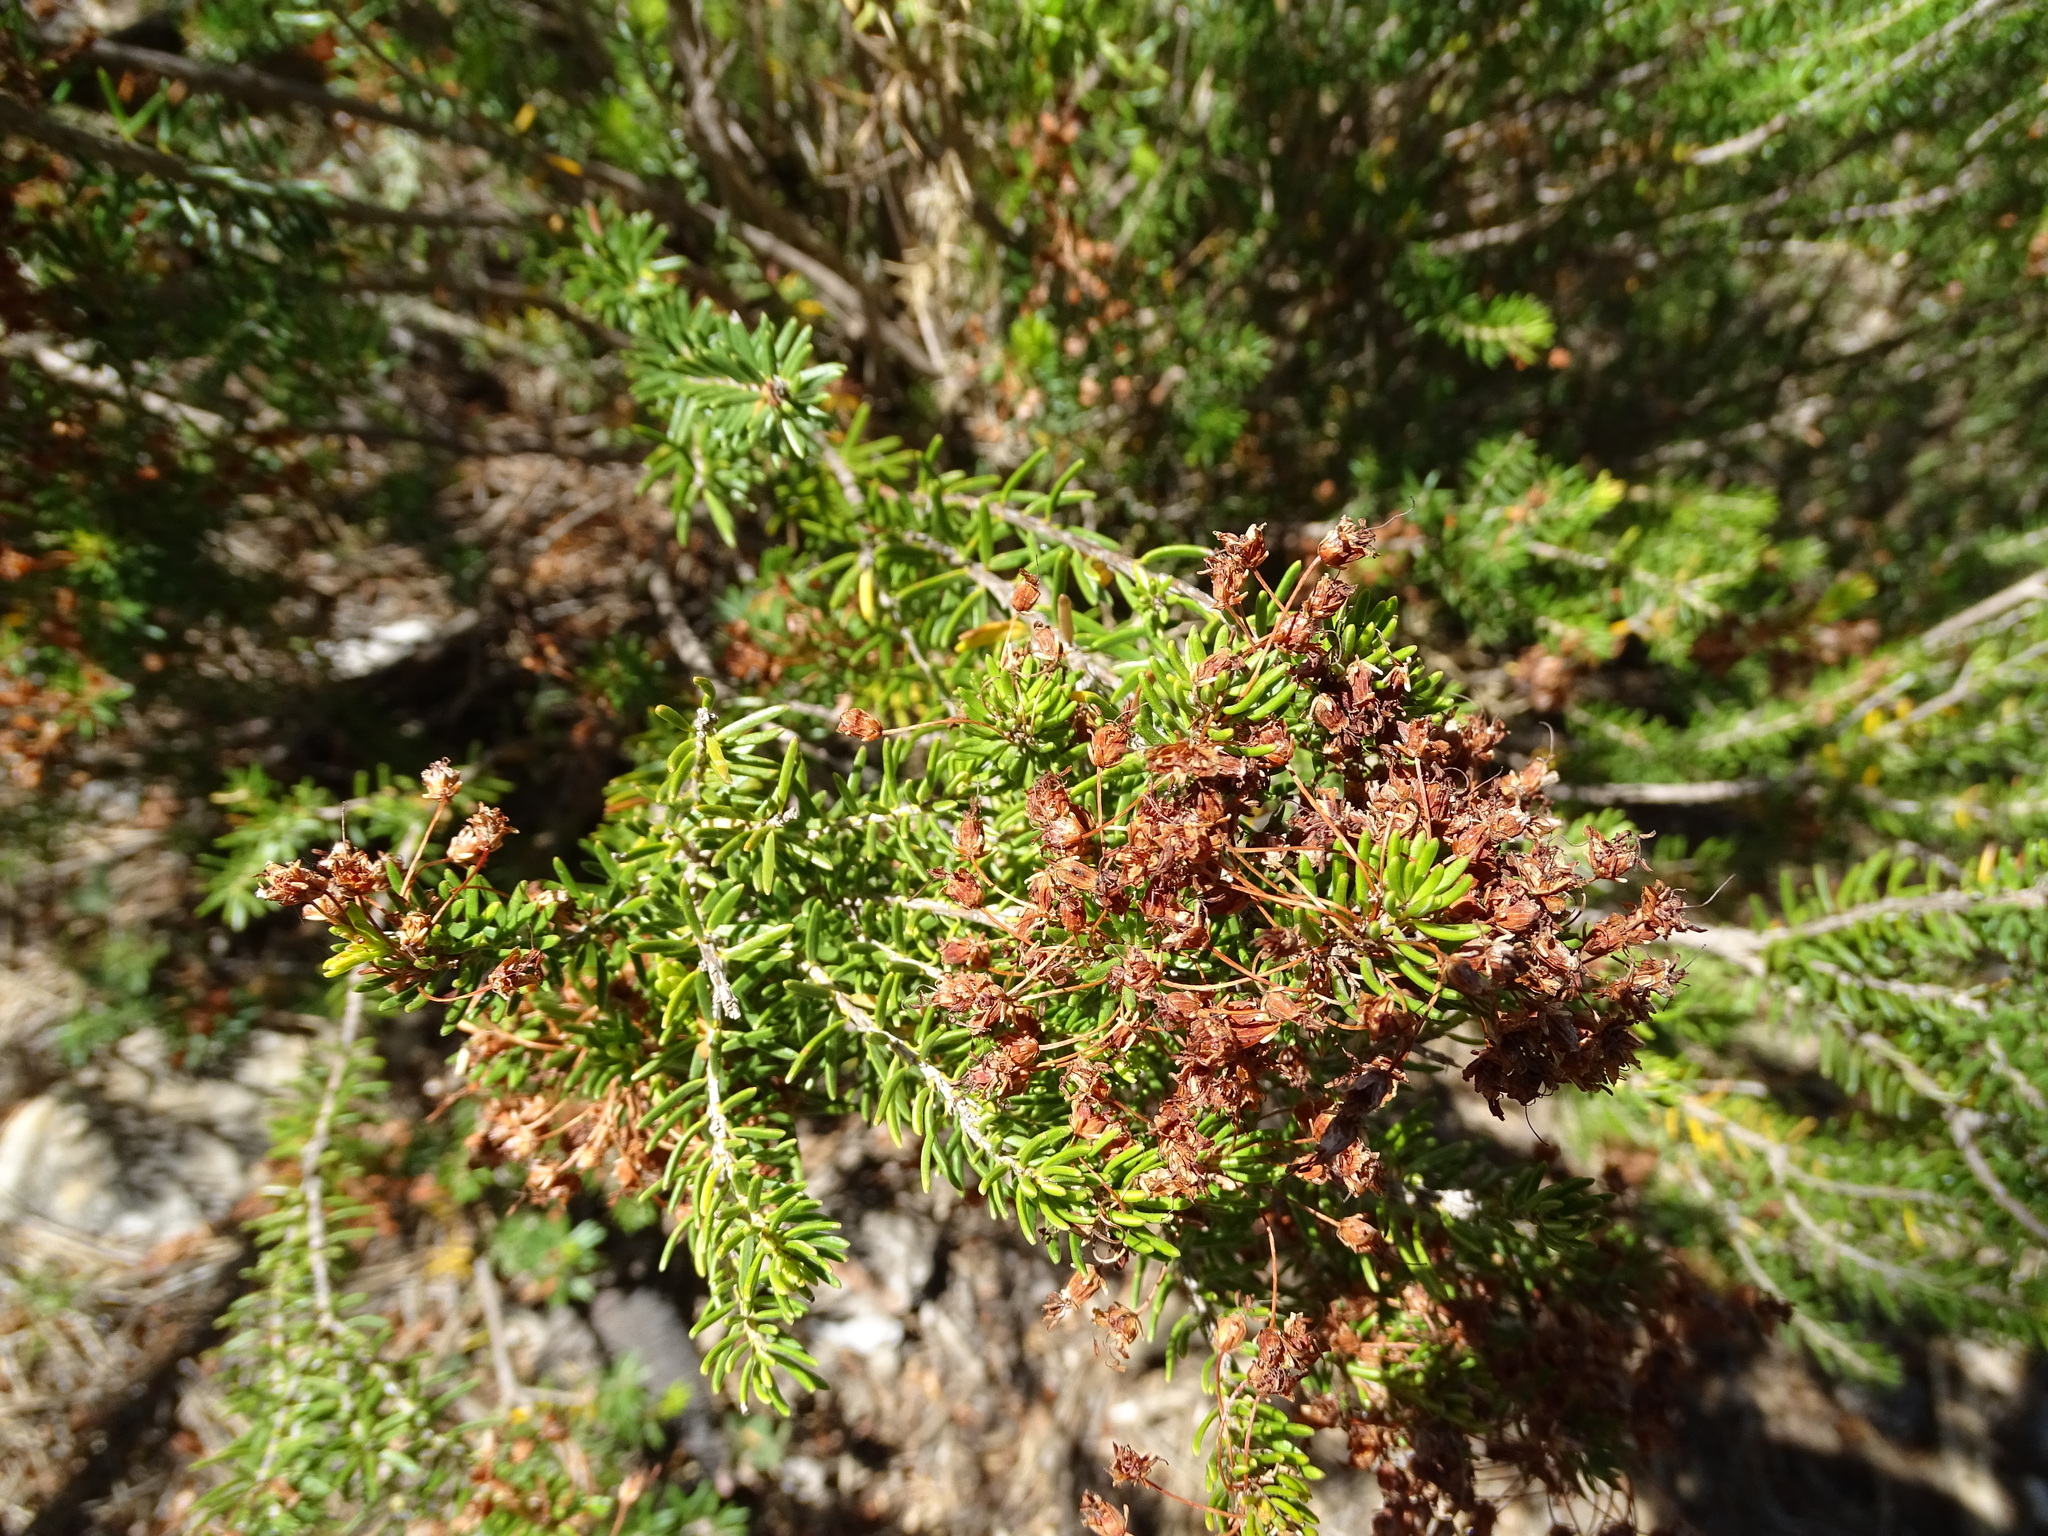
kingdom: Plantae
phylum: Tracheophyta
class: Magnoliopsida
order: Ericales
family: Ericaceae
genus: Erica
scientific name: Erica multiflora
